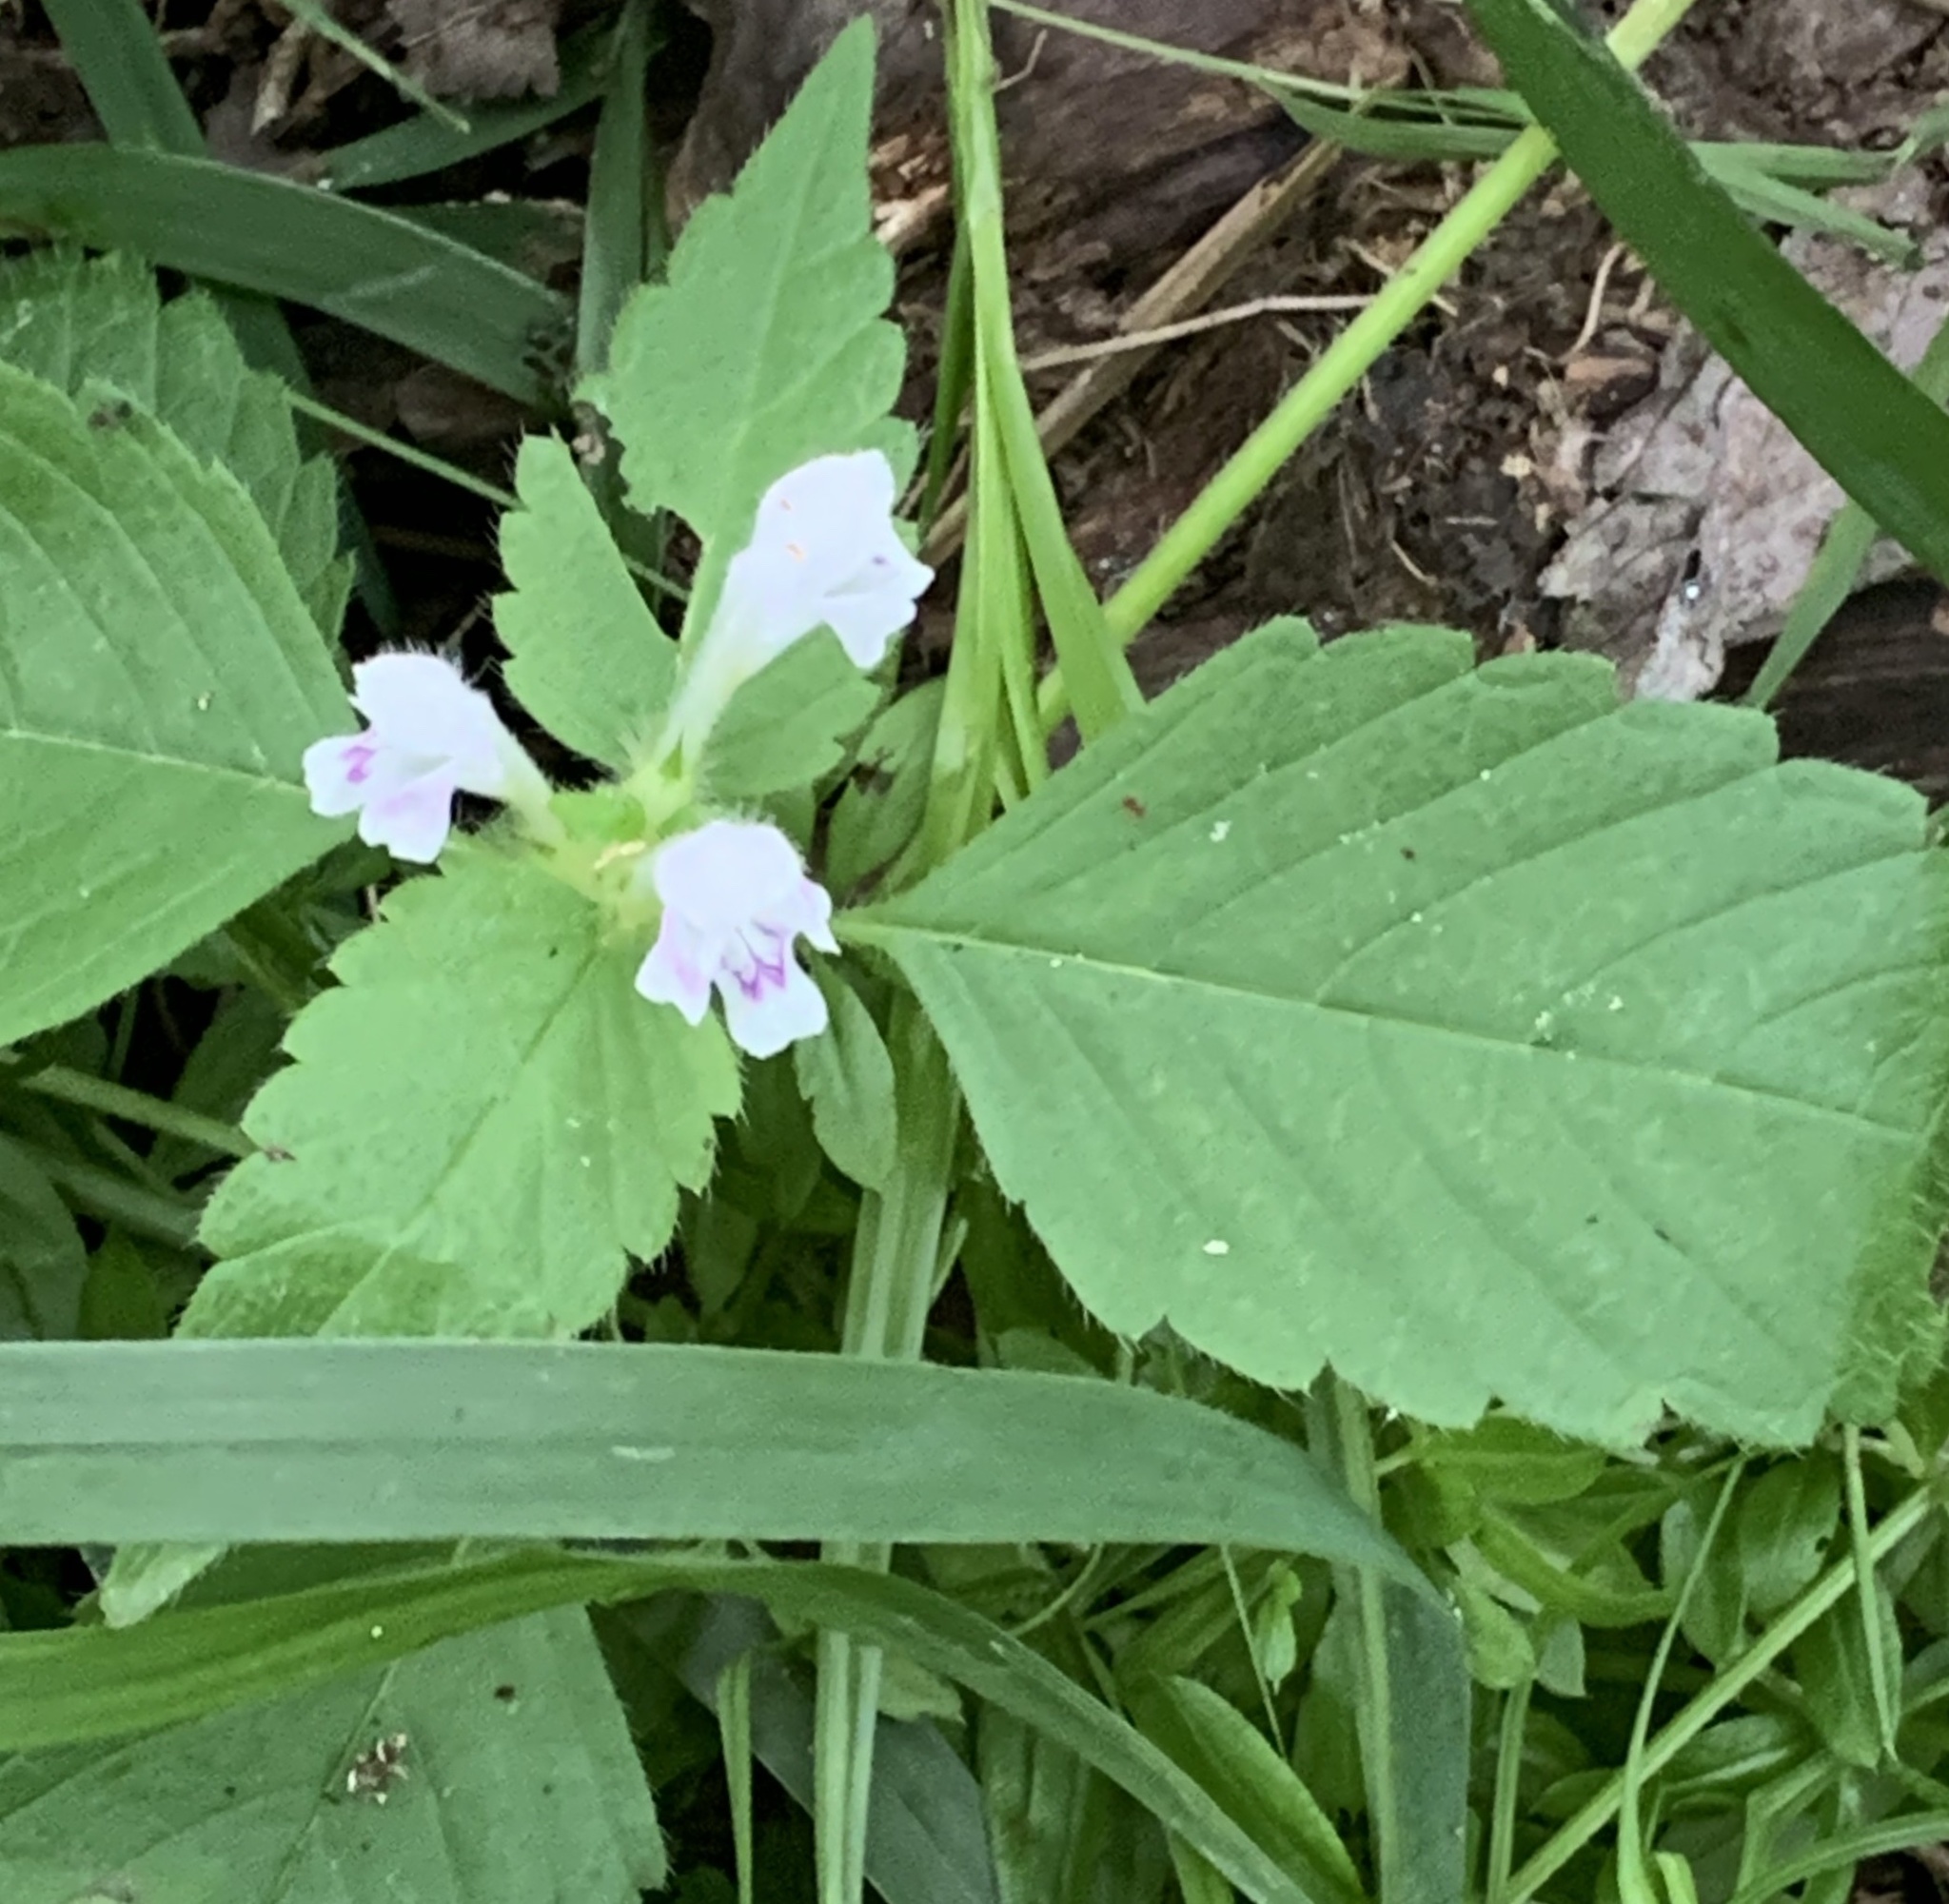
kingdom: Plantae
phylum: Tracheophyta
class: Magnoliopsida
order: Lamiales
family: Lamiaceae
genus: Galeopsis
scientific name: Galeopsis tetrahit
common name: Common hemp-nettle
